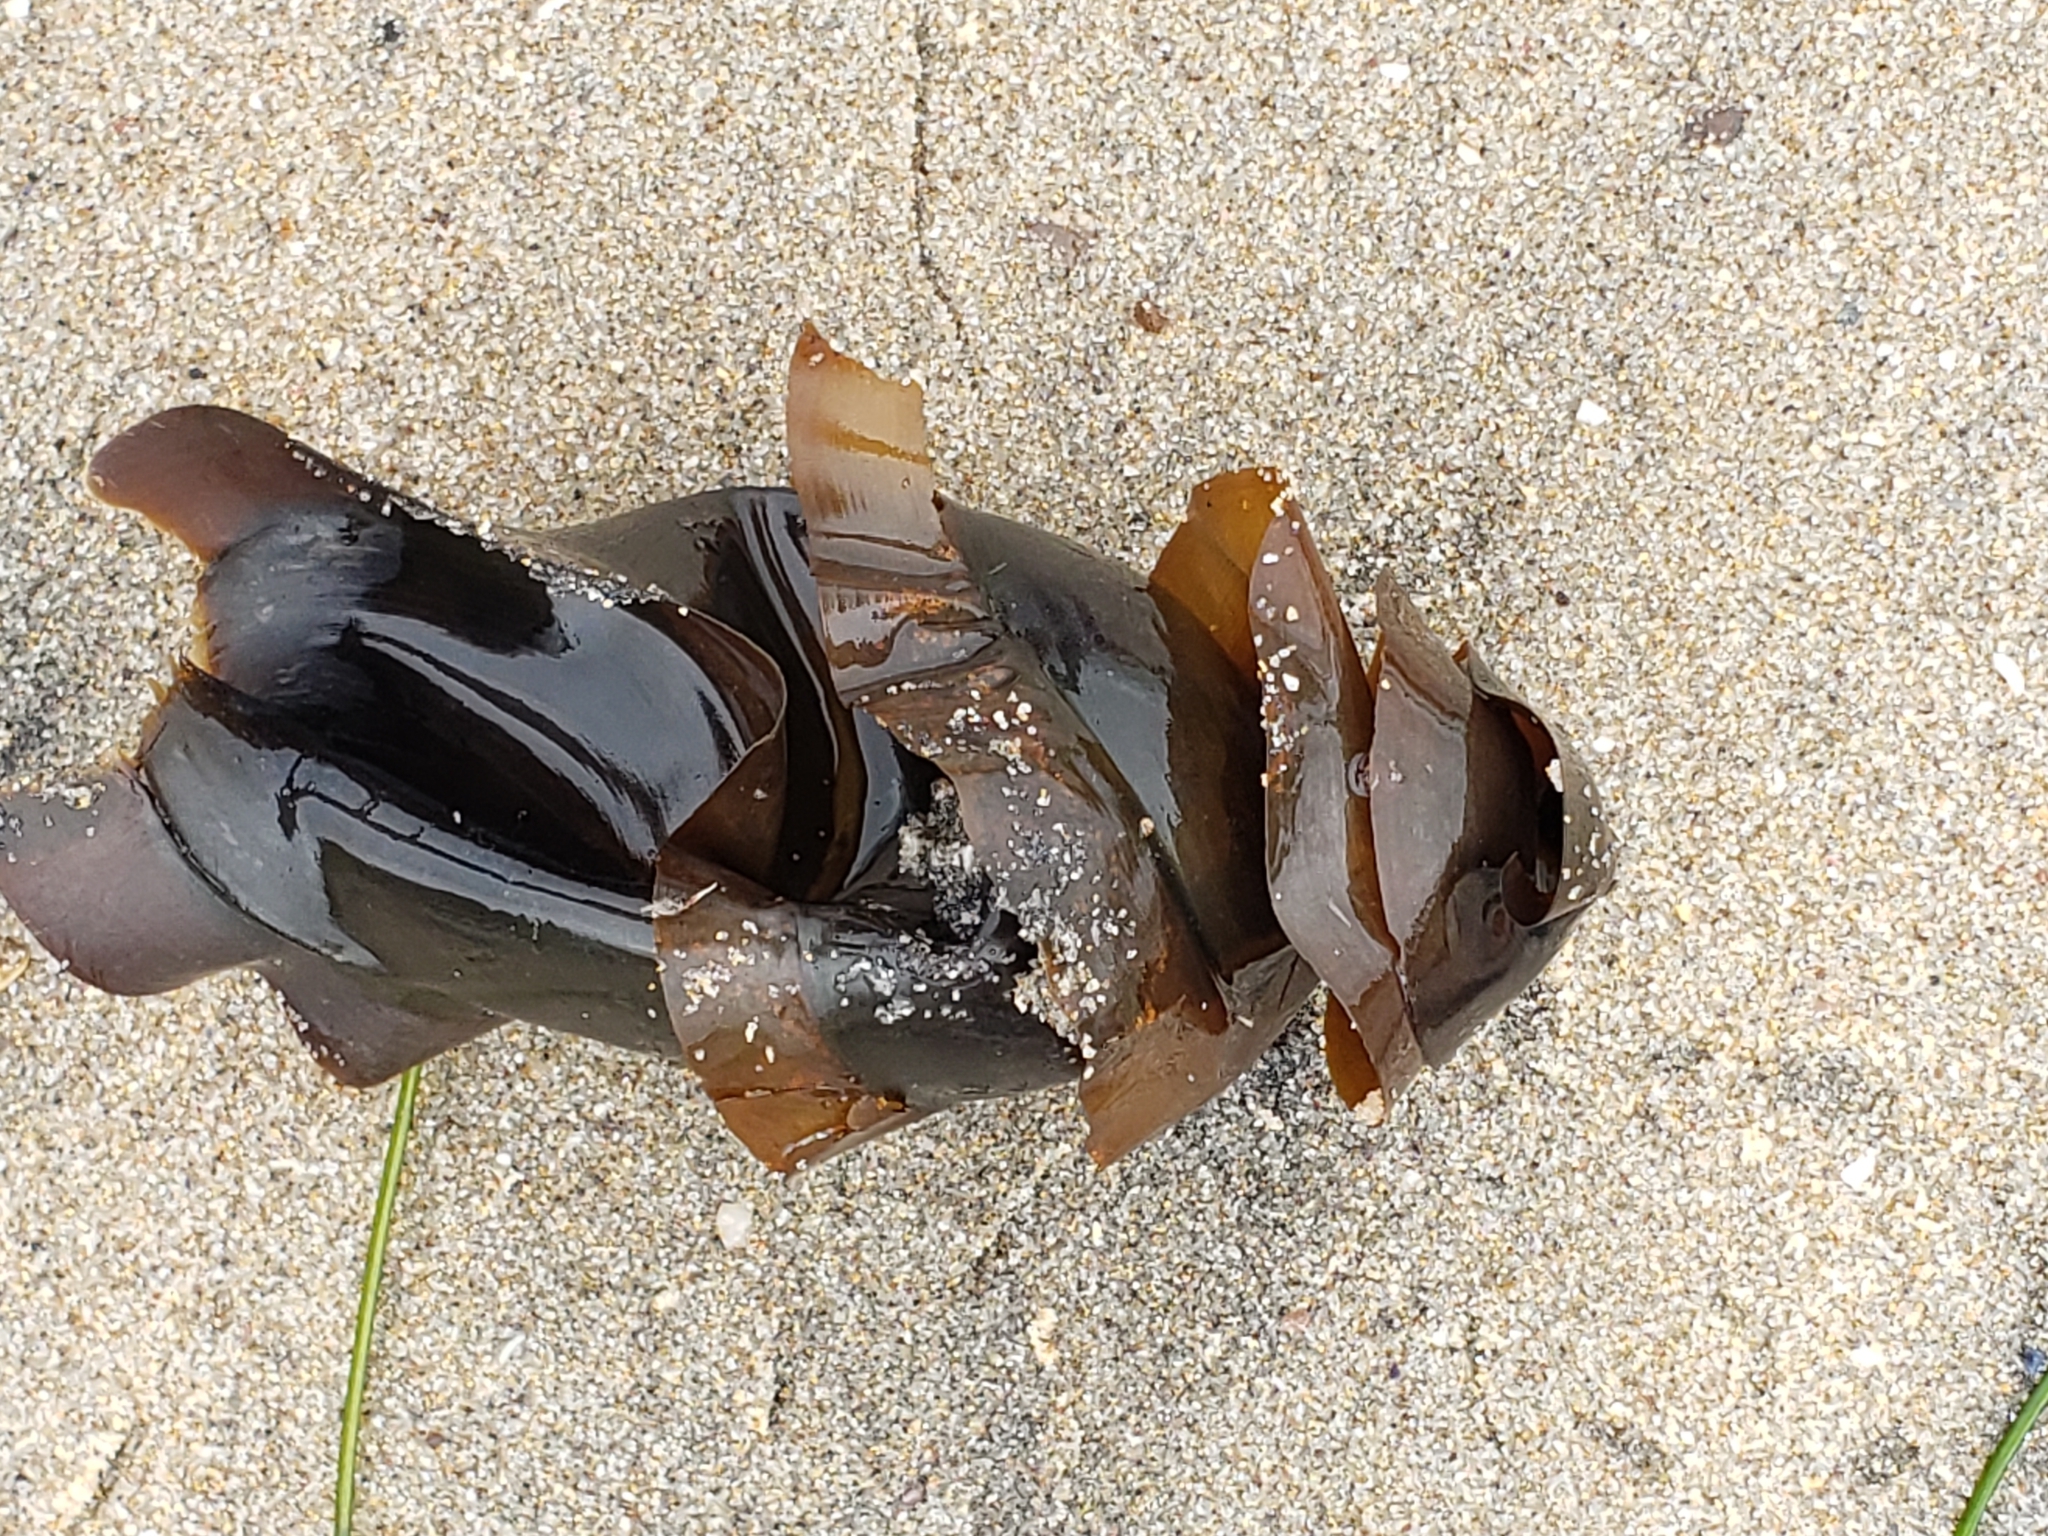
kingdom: Animalia
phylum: Chordata
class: Elasmobranchii
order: Heterodontiformes
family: Heterodontidae
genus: Heterodontus
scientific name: Heterodontus francisci
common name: Horn shark
